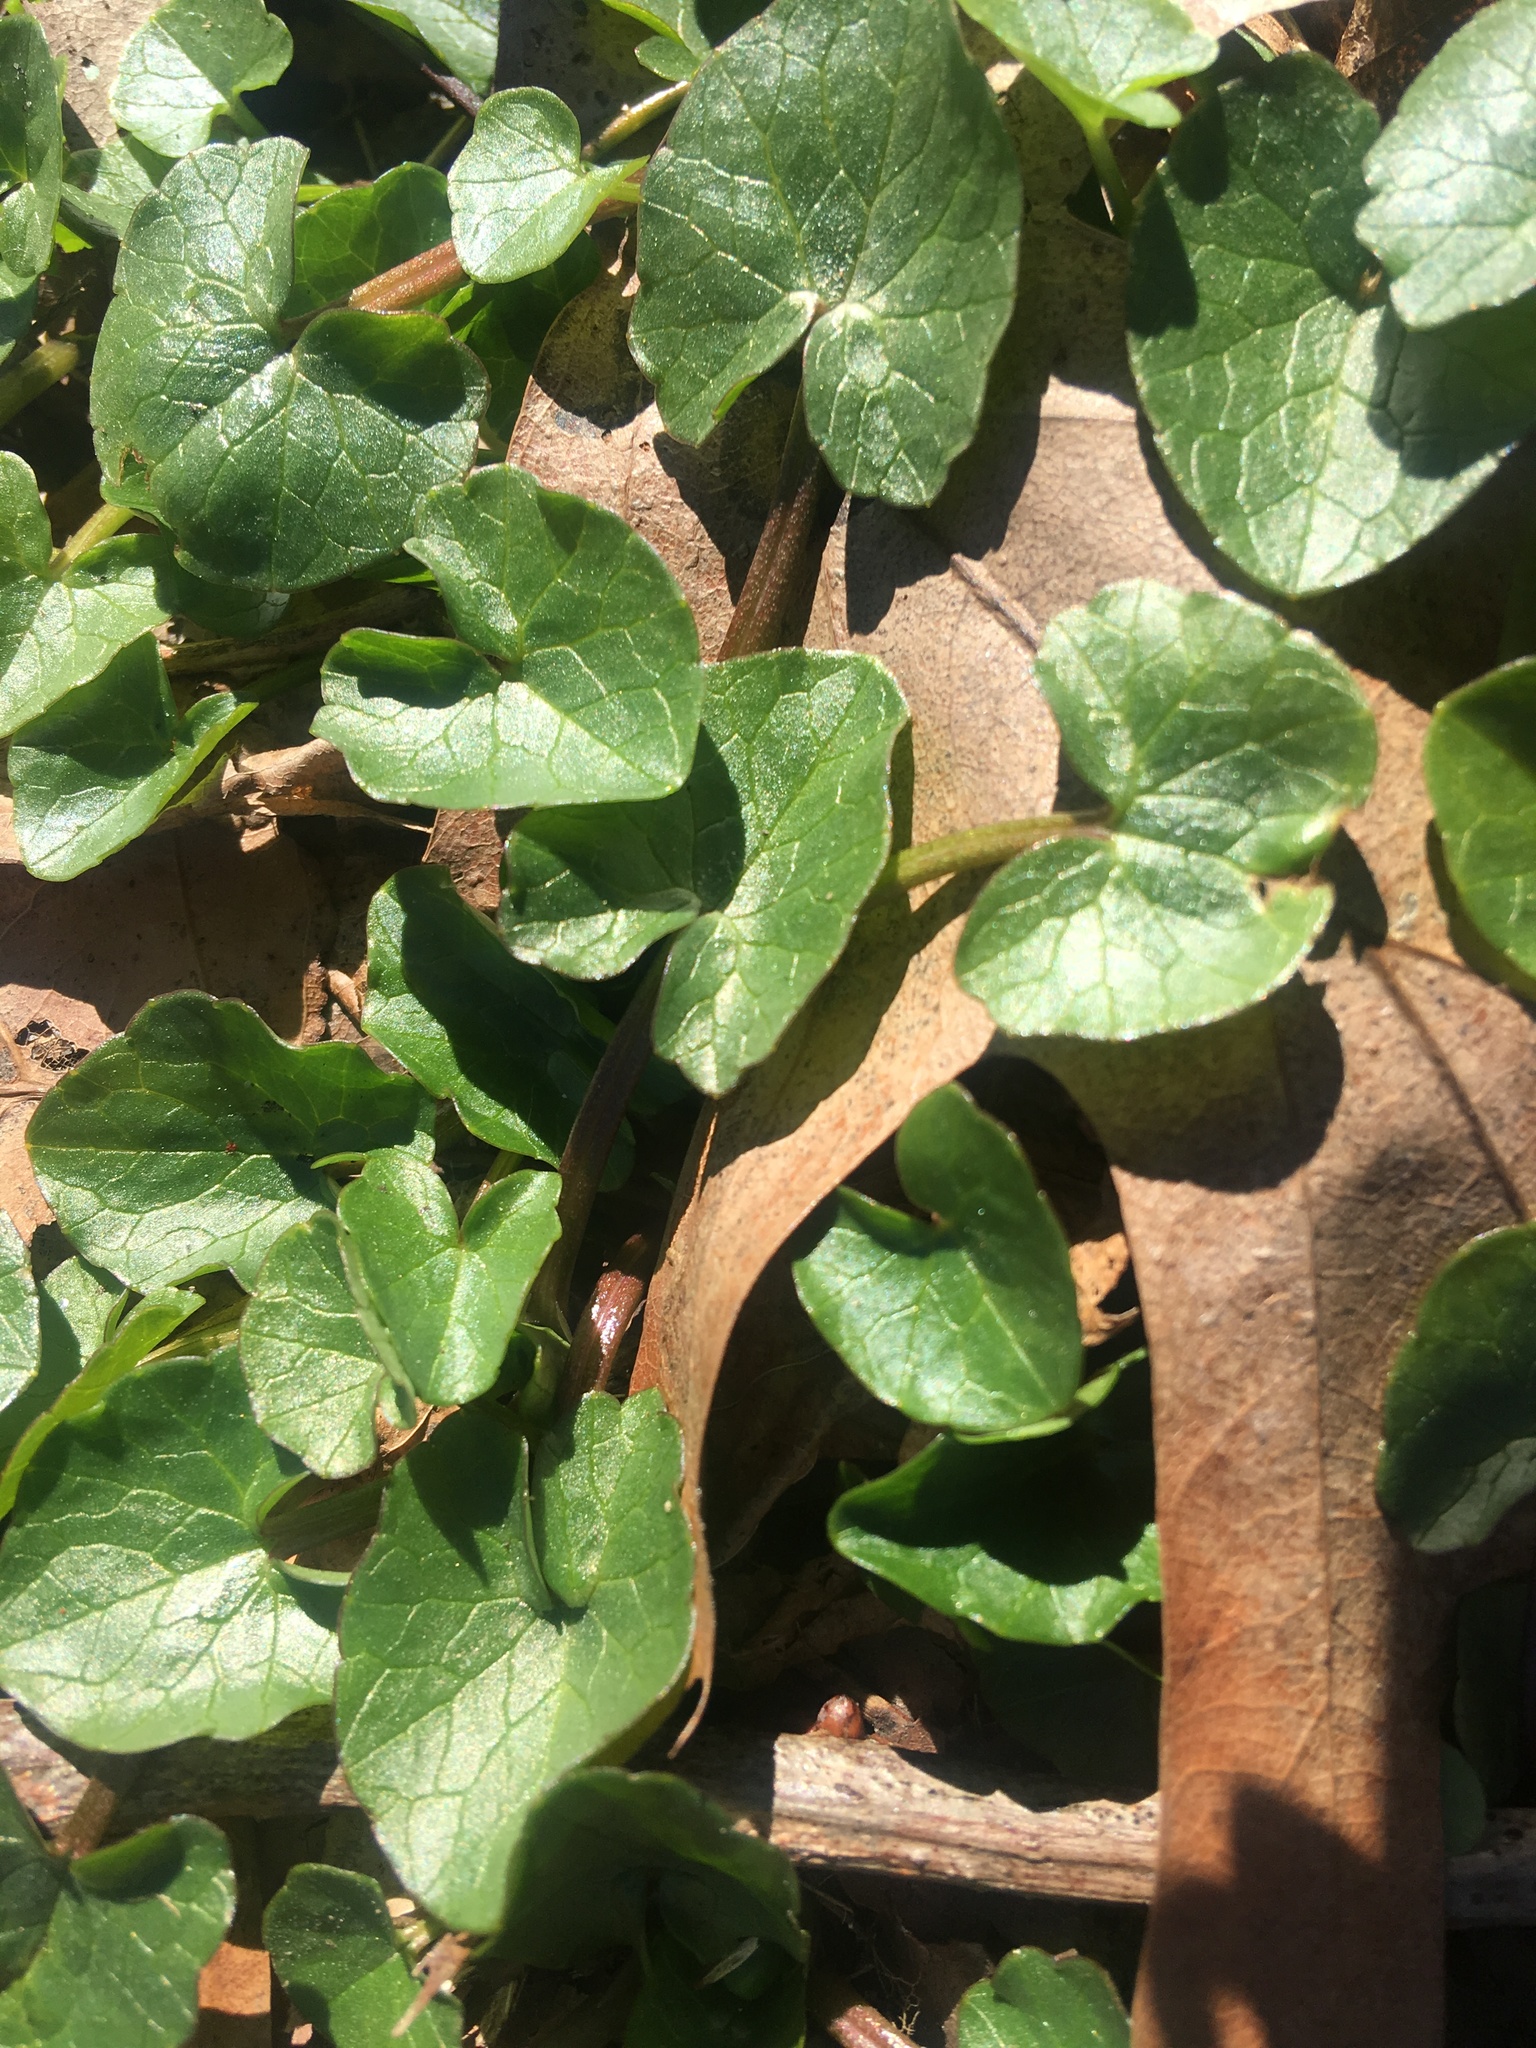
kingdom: Plantae
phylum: Tracheophyta
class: Magnoliopsida
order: Ranunculales
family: Ranunculaceae
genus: Ficaria
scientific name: Ficaria verna
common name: Lesser celandine
